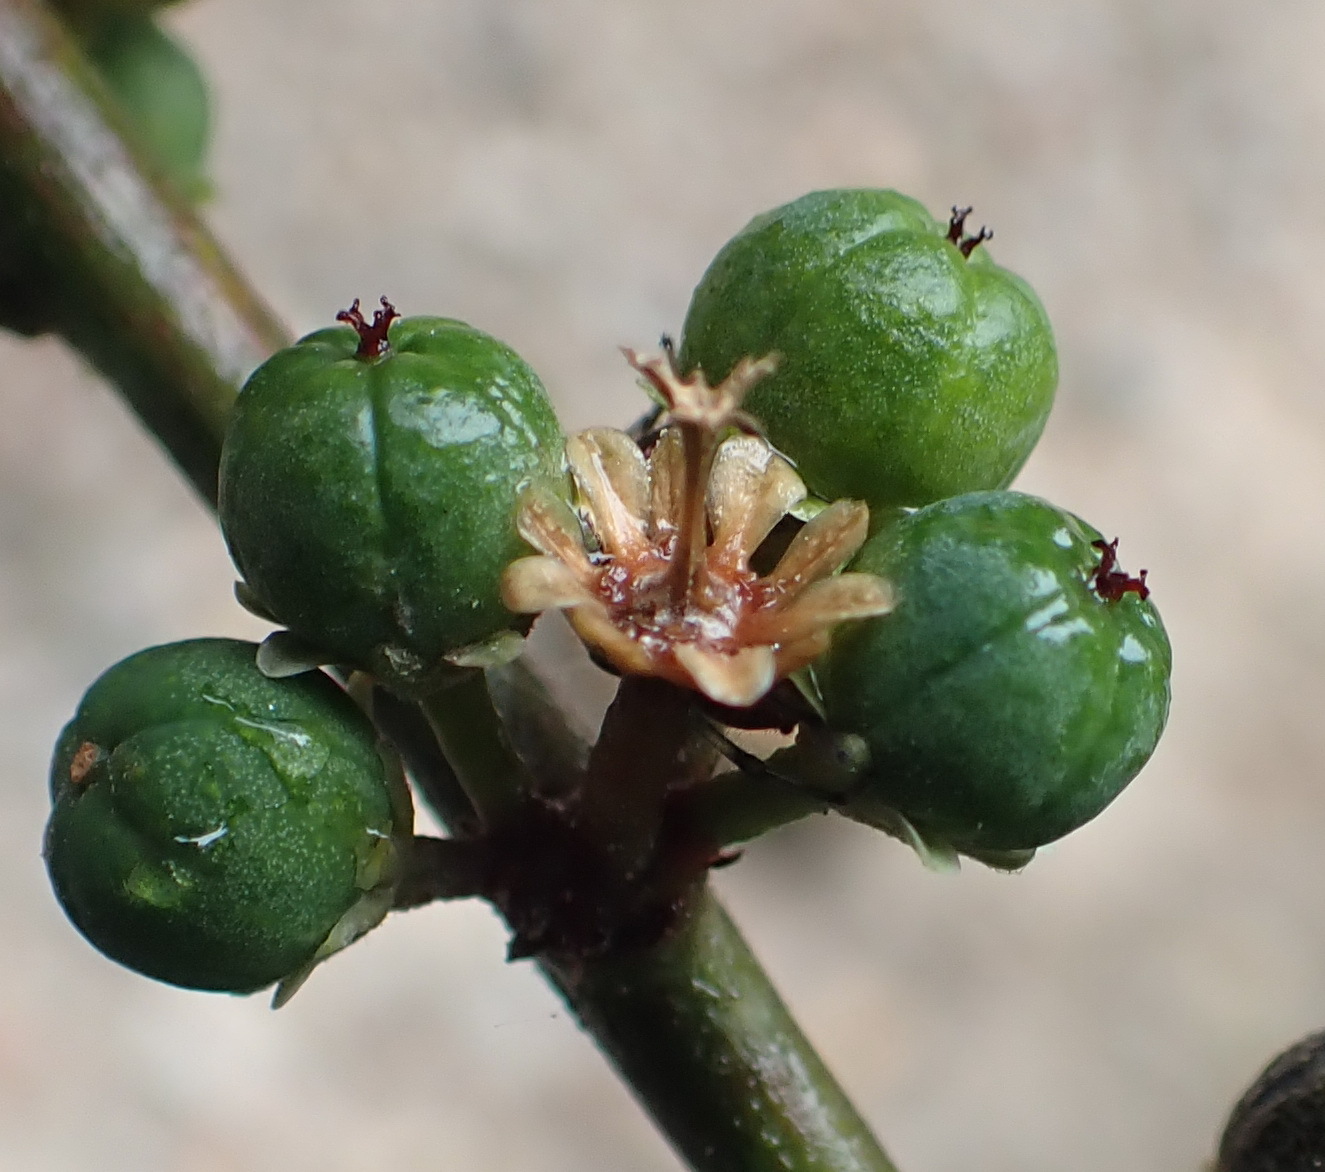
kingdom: Plantae
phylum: Tracheophyta
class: Magnoliopsida
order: Malpighiales
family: Peraceae
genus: Clutia
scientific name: Clutia affinis
